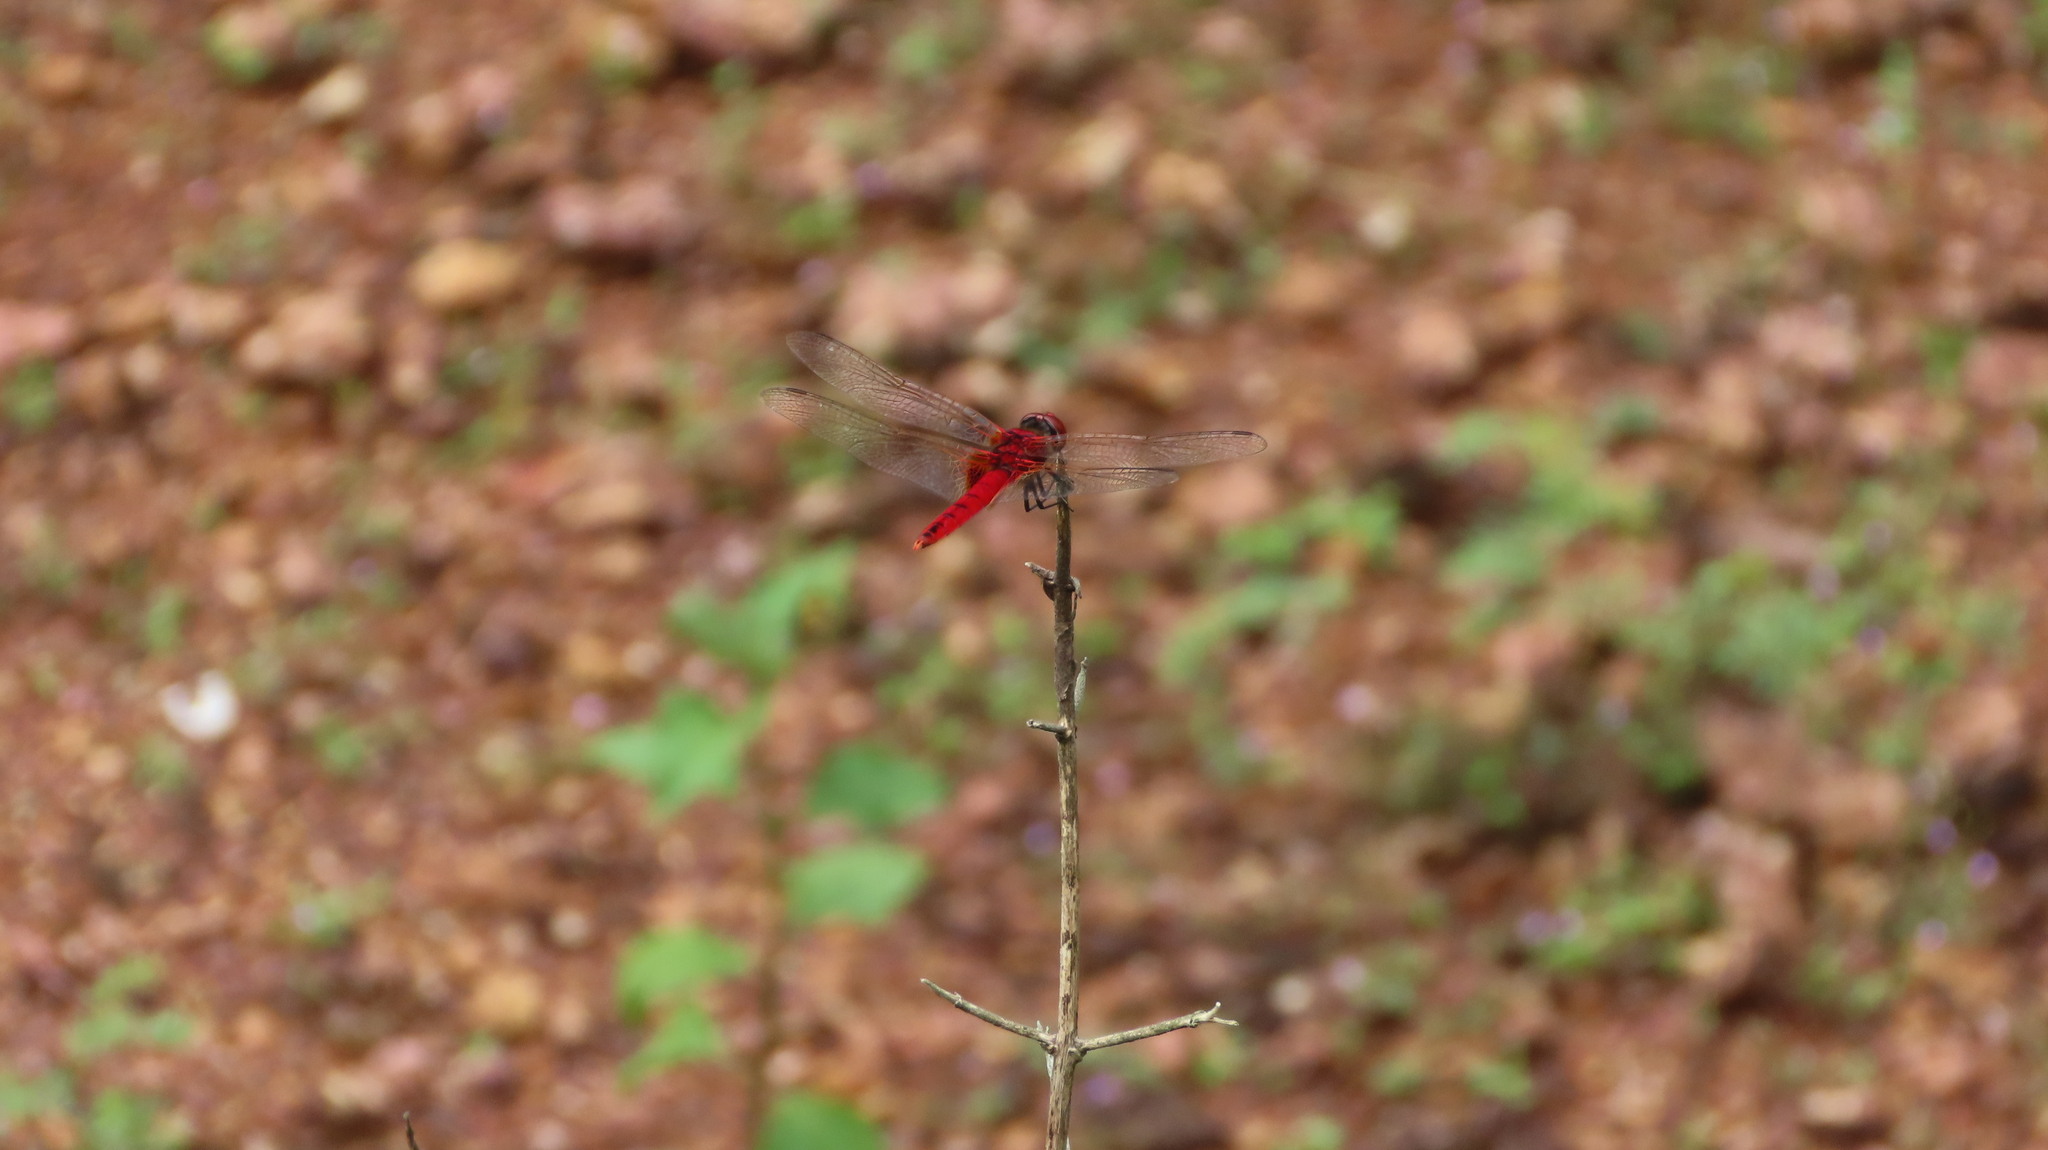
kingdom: Animalia
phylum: Arthropoda
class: Insecta
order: Odonata
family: Libellulidae
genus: Urothemis
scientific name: Urothemis signata
